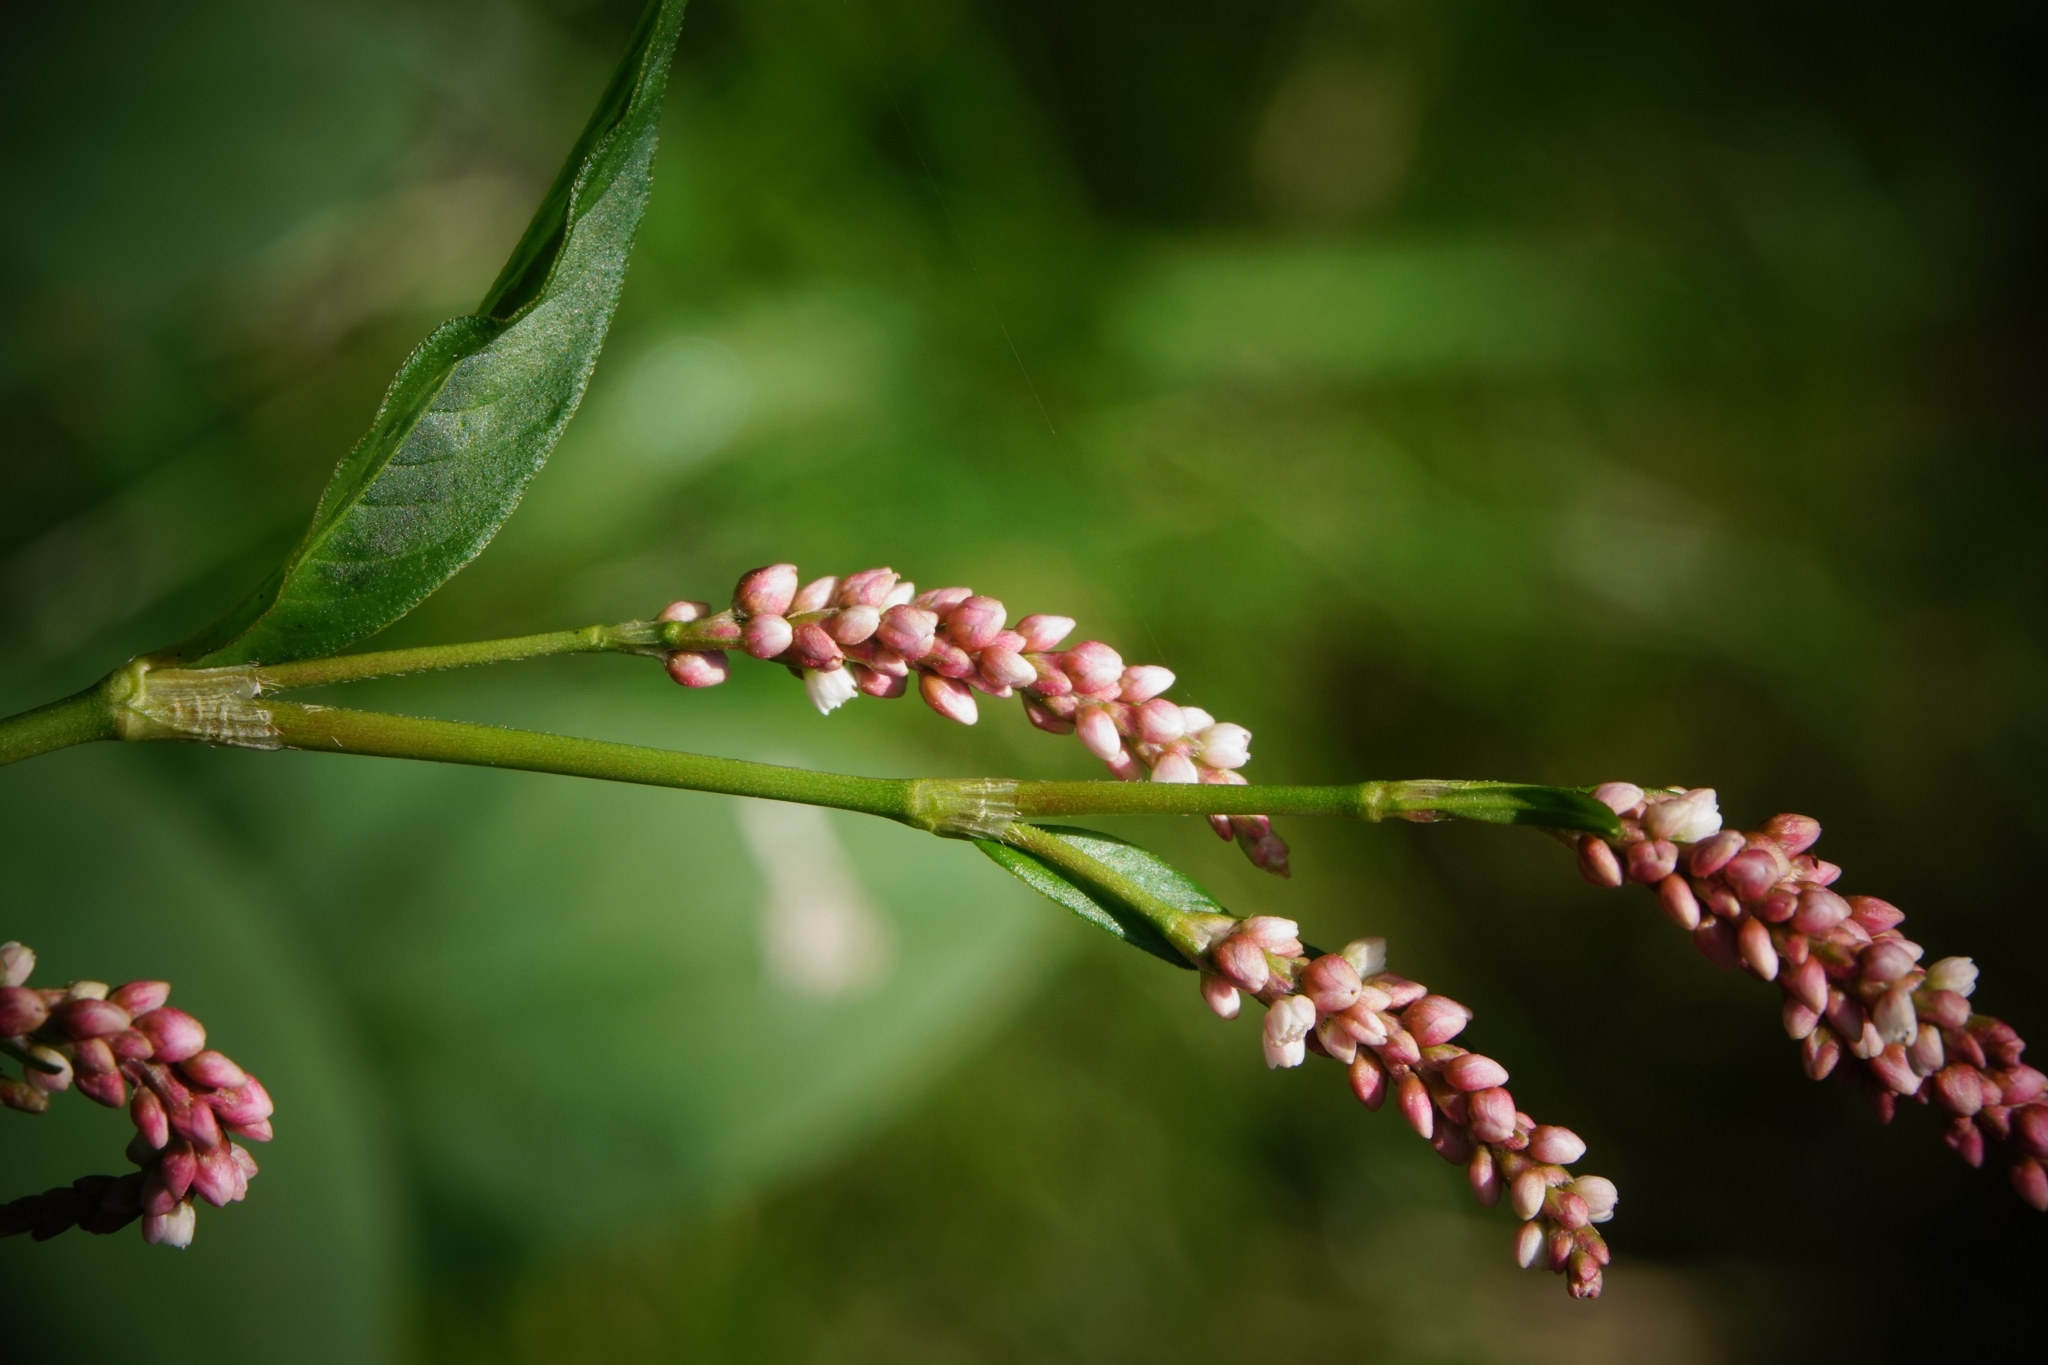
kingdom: Plantae
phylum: Tracheophyta
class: Magnoliopsida
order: Caryophyllales
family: Polygonaceae
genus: Persicaria
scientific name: Persicaria maculosa
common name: Redshank
